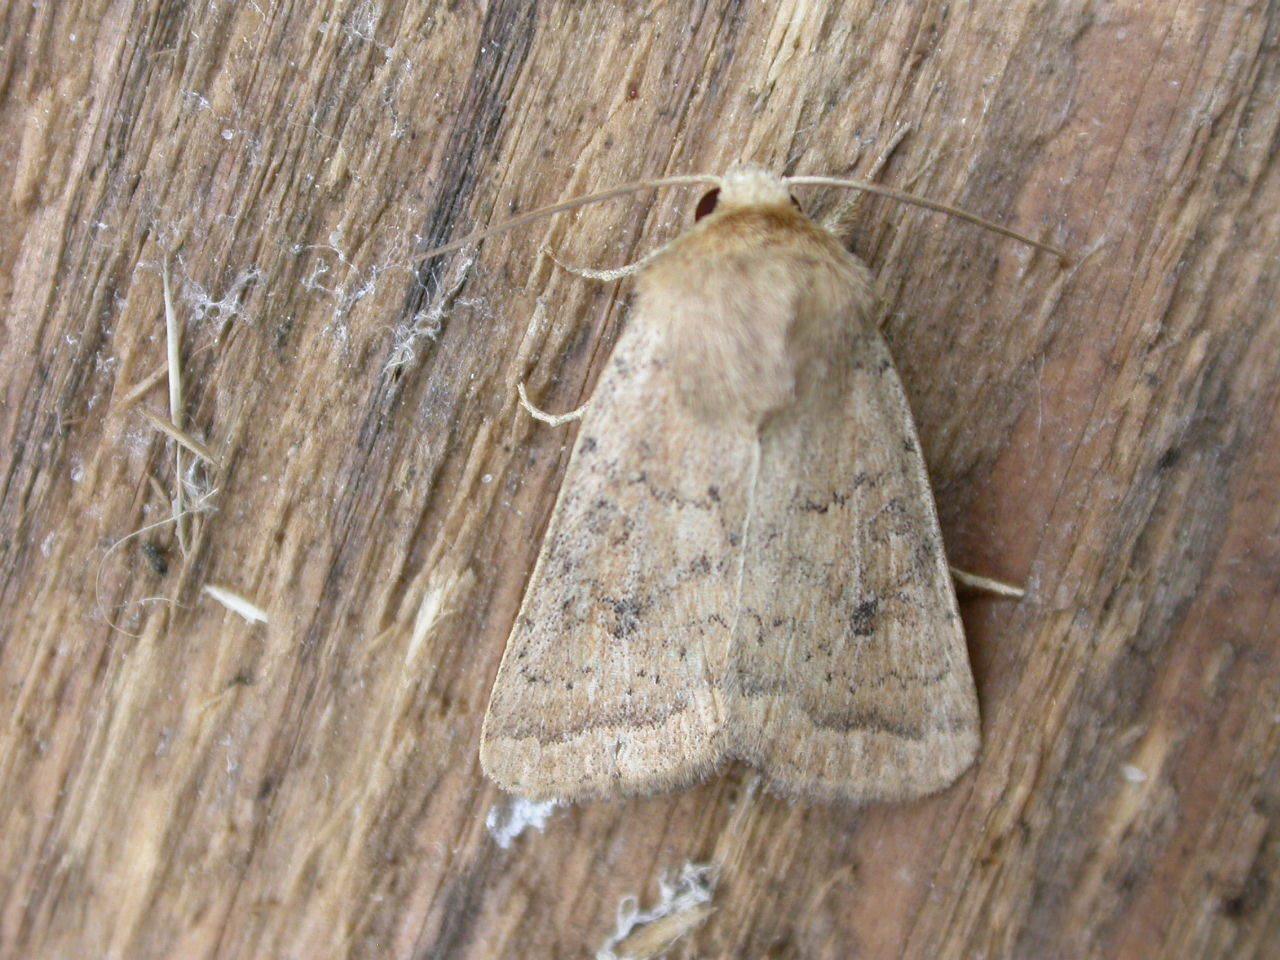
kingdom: Animalia
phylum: Arthropoda
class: Insecta
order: Lepidoptera
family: Noctuidae
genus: Hoplodrina
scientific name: Hoplodrina octogenaria
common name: Uncertain
